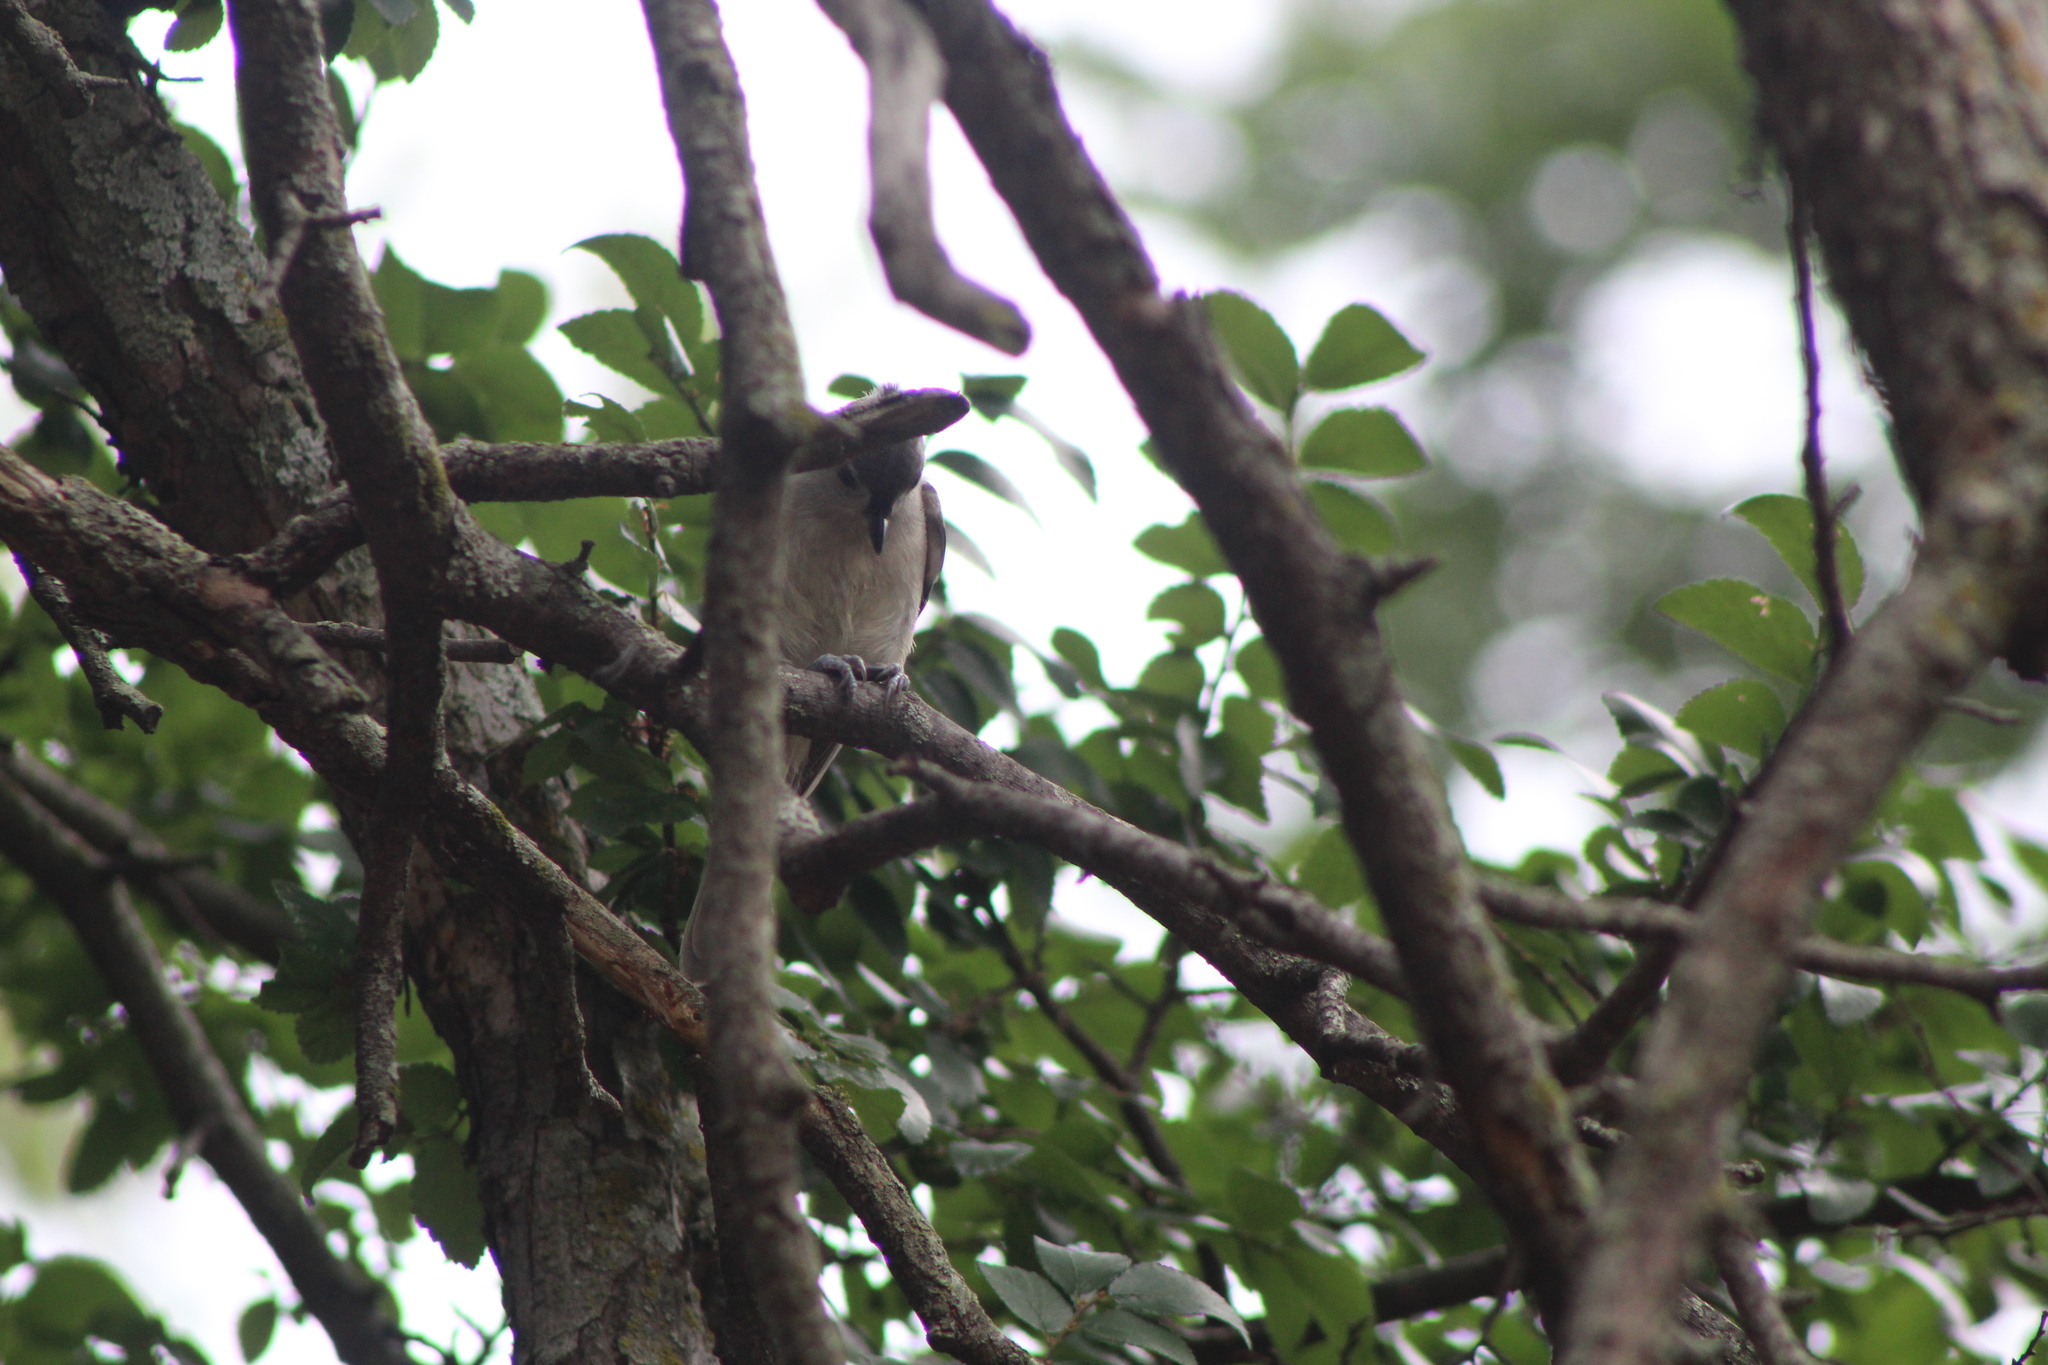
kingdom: Animalia
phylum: Chordata
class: Aves
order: Passeriformes
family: Paridae
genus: Baeolophus
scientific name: Baeolophus bicolor
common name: Tufted titmouse
